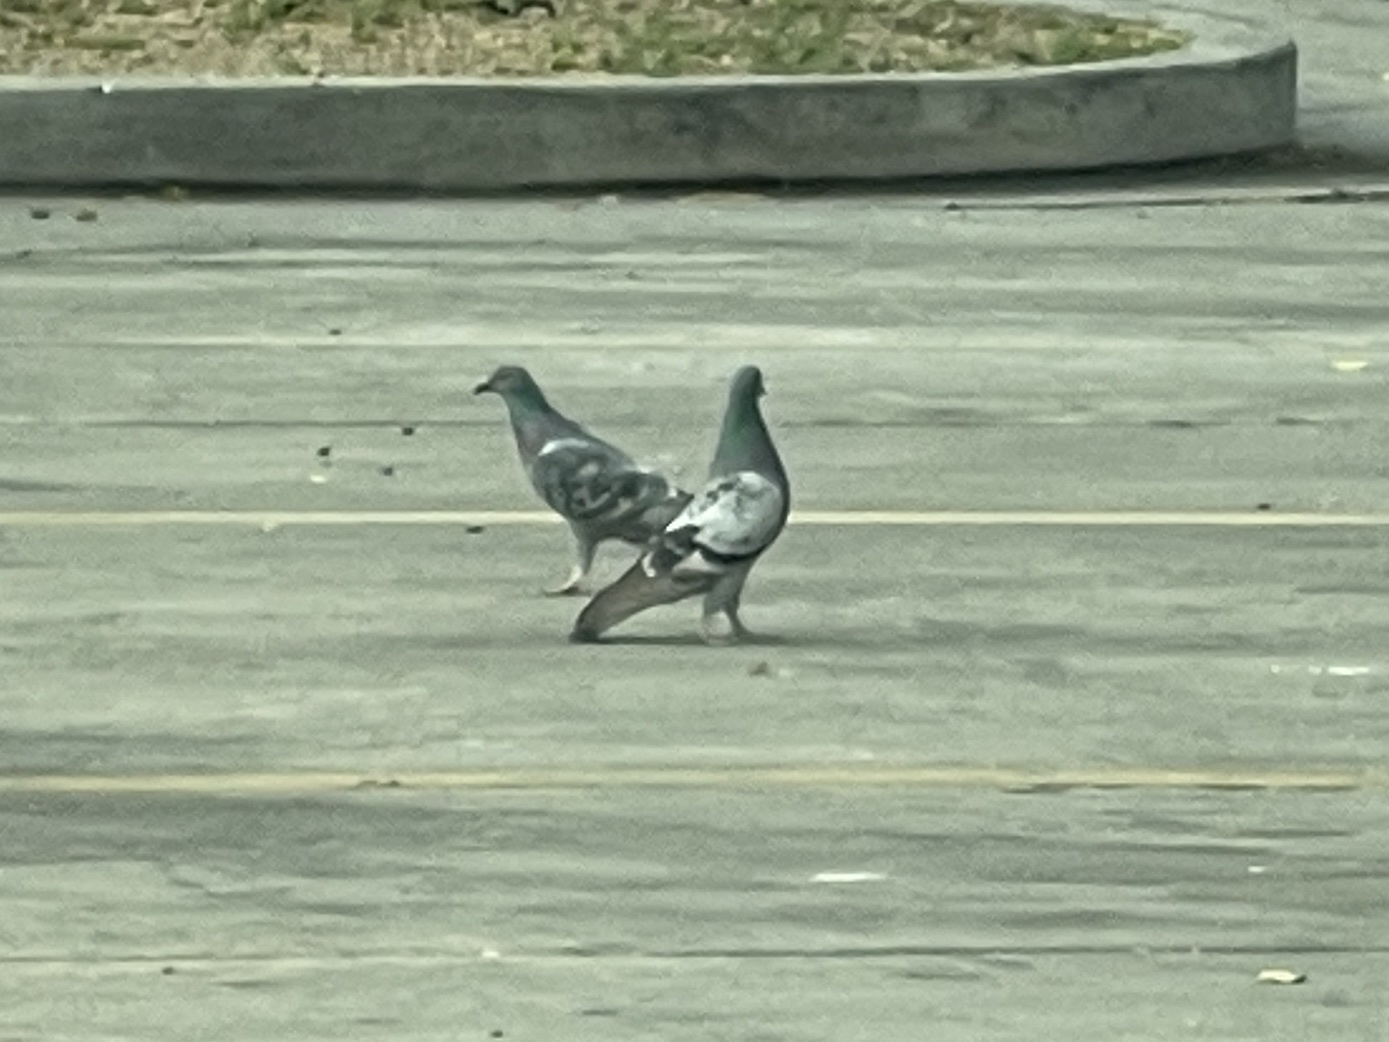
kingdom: Animalia
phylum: Chordata
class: Aves
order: Columbiformes
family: Columbidae
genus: Columba
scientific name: Columba livia
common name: Rock pigeon
